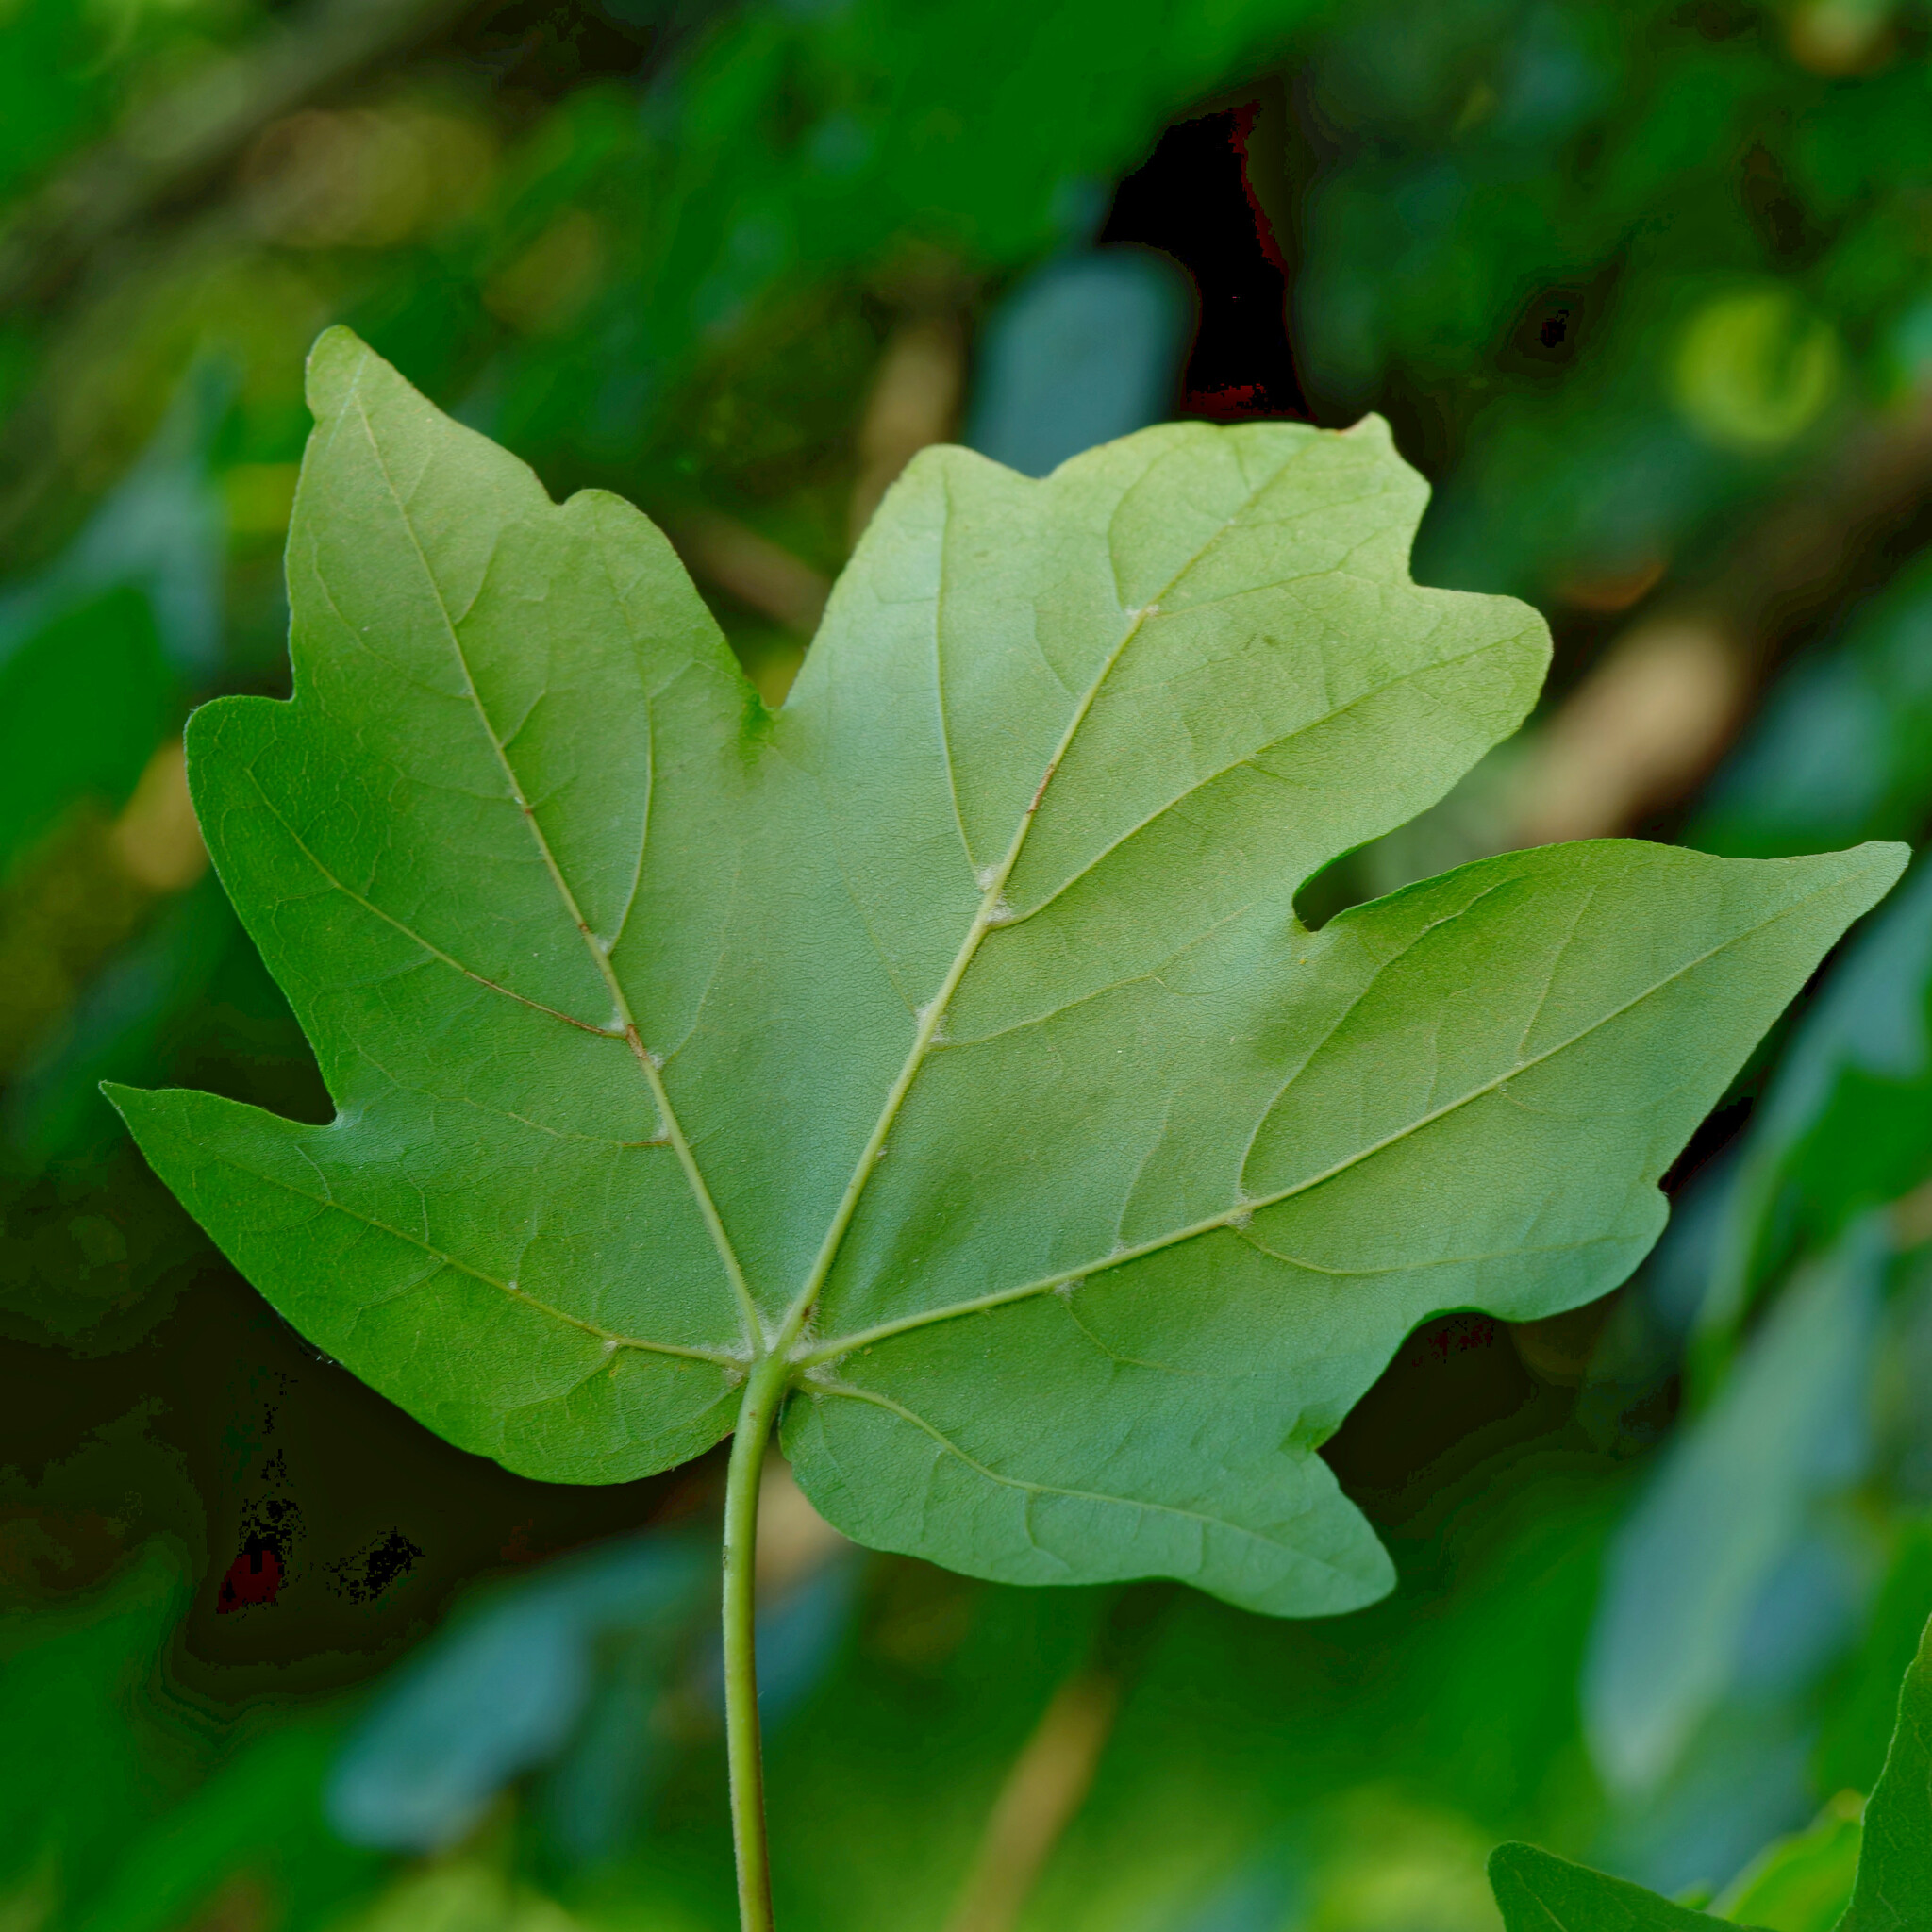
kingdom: Plantae
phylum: Tracheophyta
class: Magnoliopsida
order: Sapindales
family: Sapindaceae
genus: Acer
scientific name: Acer campestre
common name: Field maple
